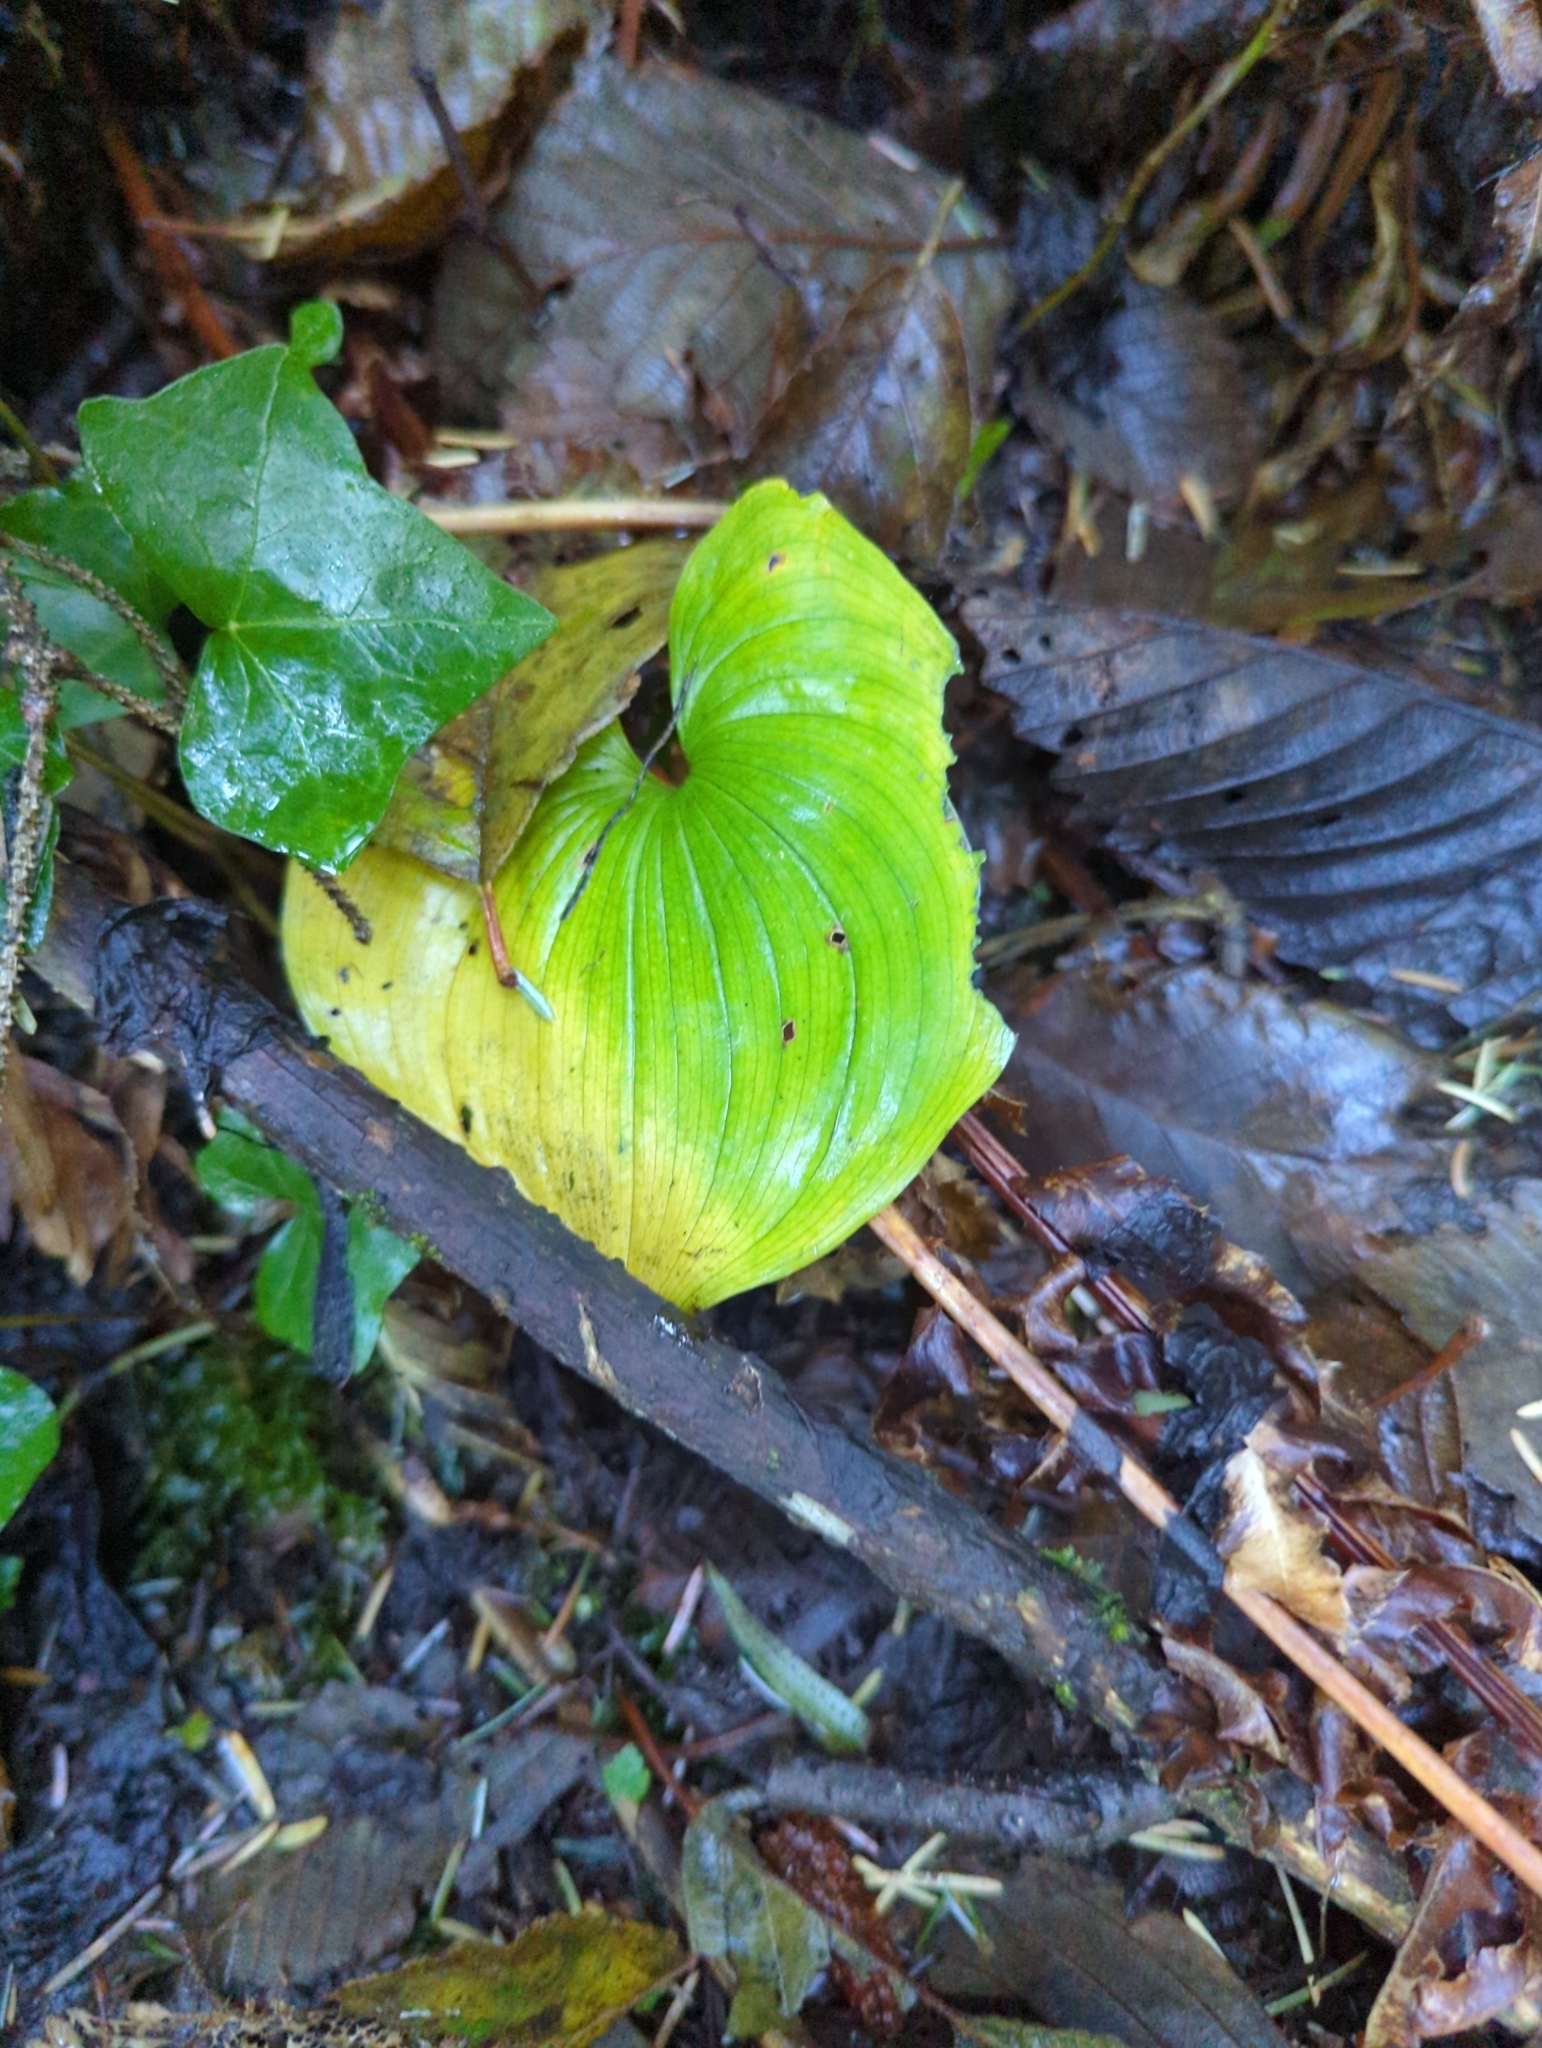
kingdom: Plantae
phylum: Tracheophyta
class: Liliopsida
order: Asparagales
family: Asparagaceae
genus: Maianthemum
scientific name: Maianthemum dilatatum
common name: False lily-of-the-valley
